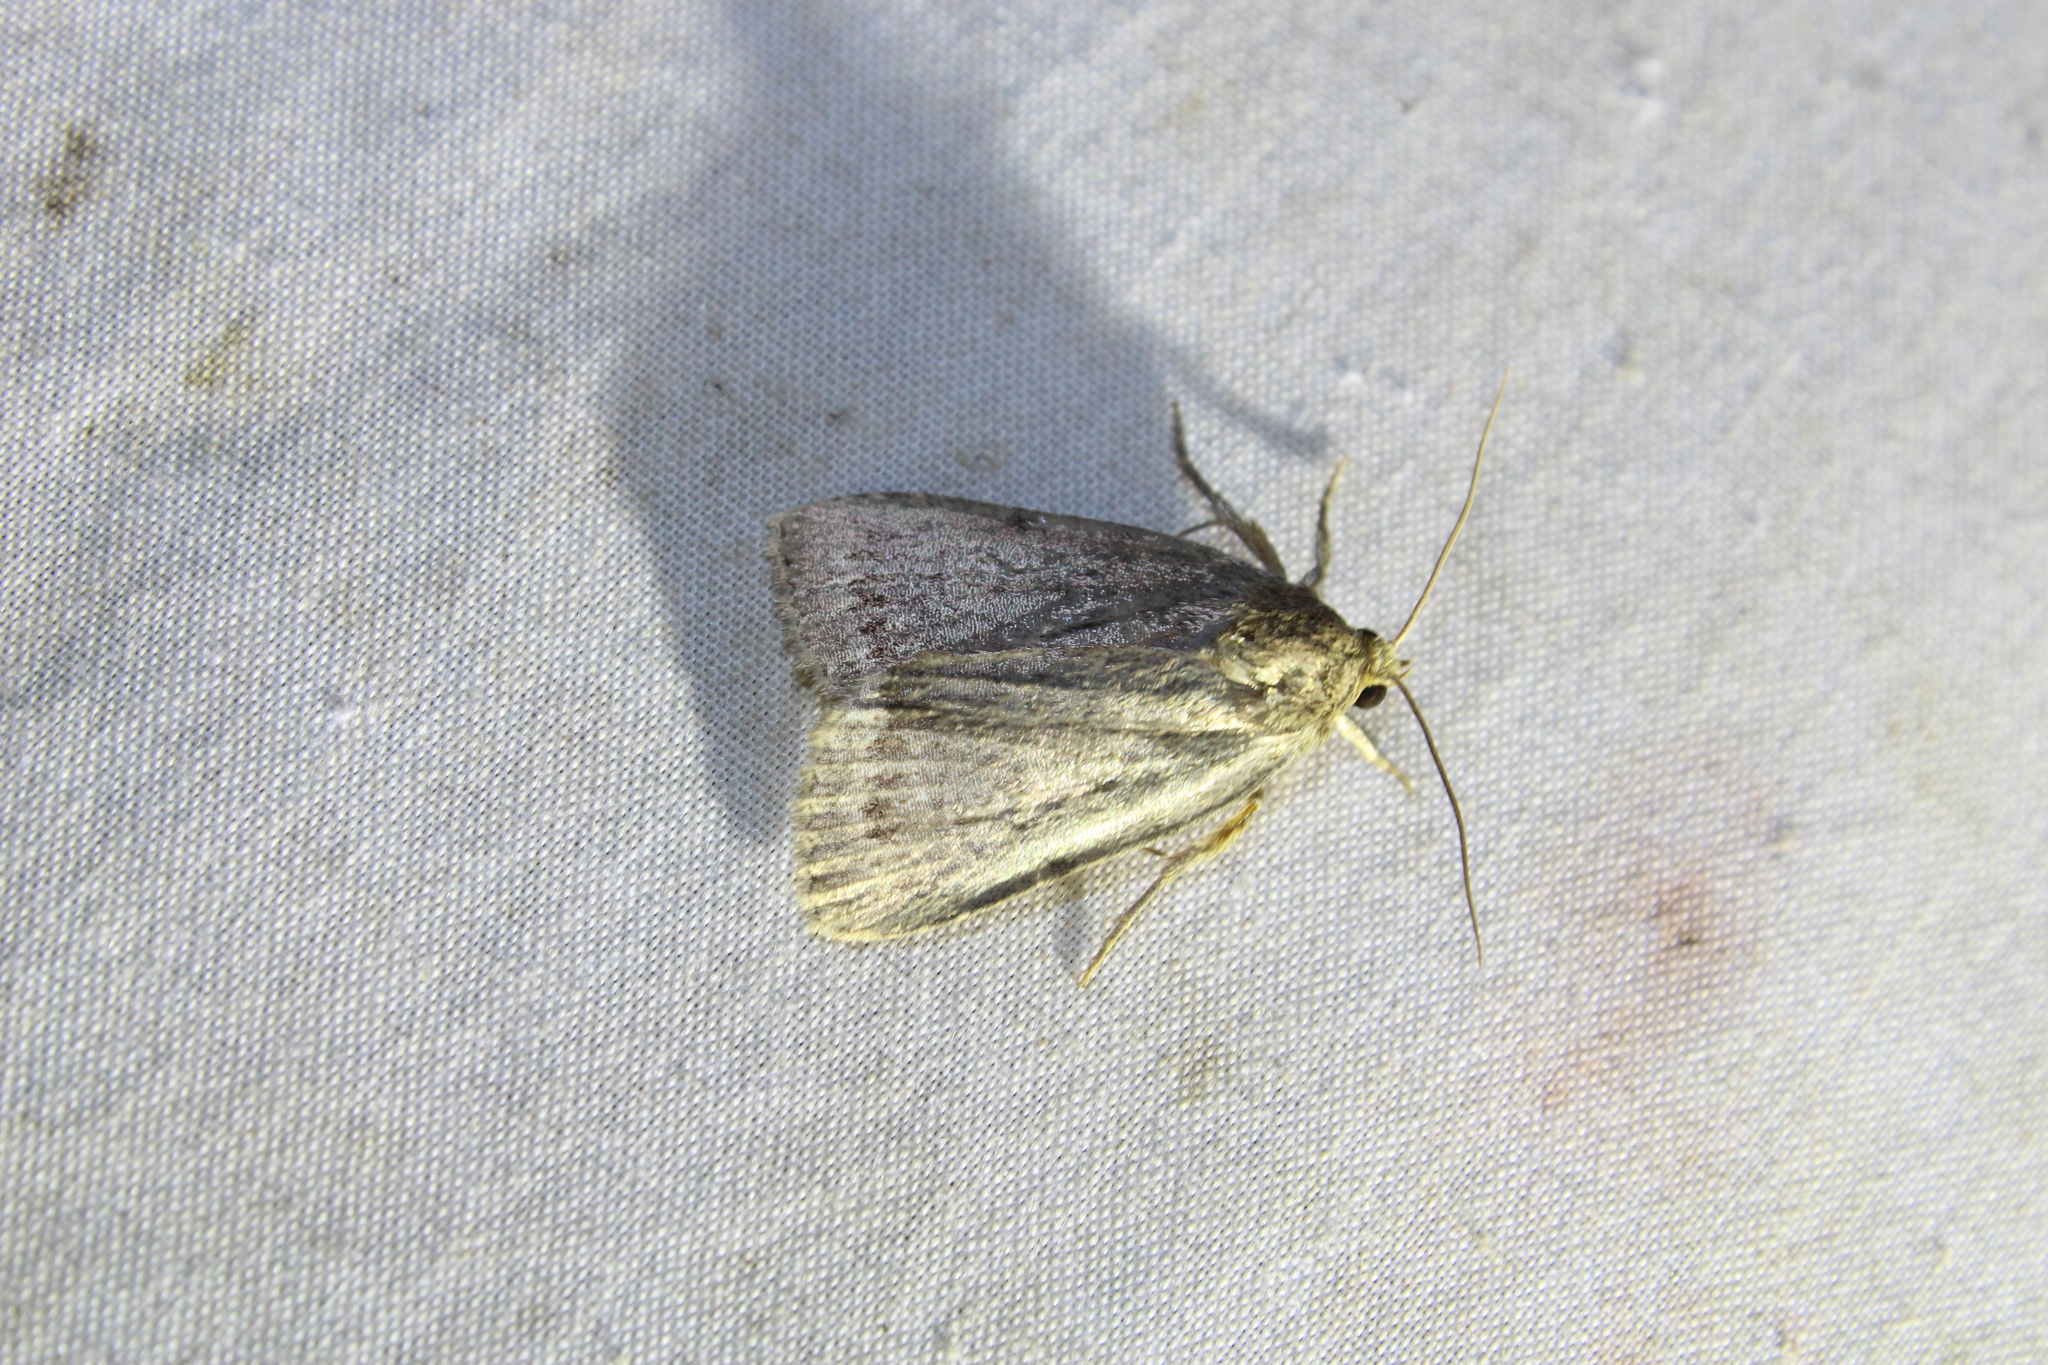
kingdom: Animalia
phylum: Arthropoda
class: Insecta
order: Lepidoptera
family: Noctuidae
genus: Amphipyra
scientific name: Amphipyra glabella
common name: Smooth amphipyra moth
